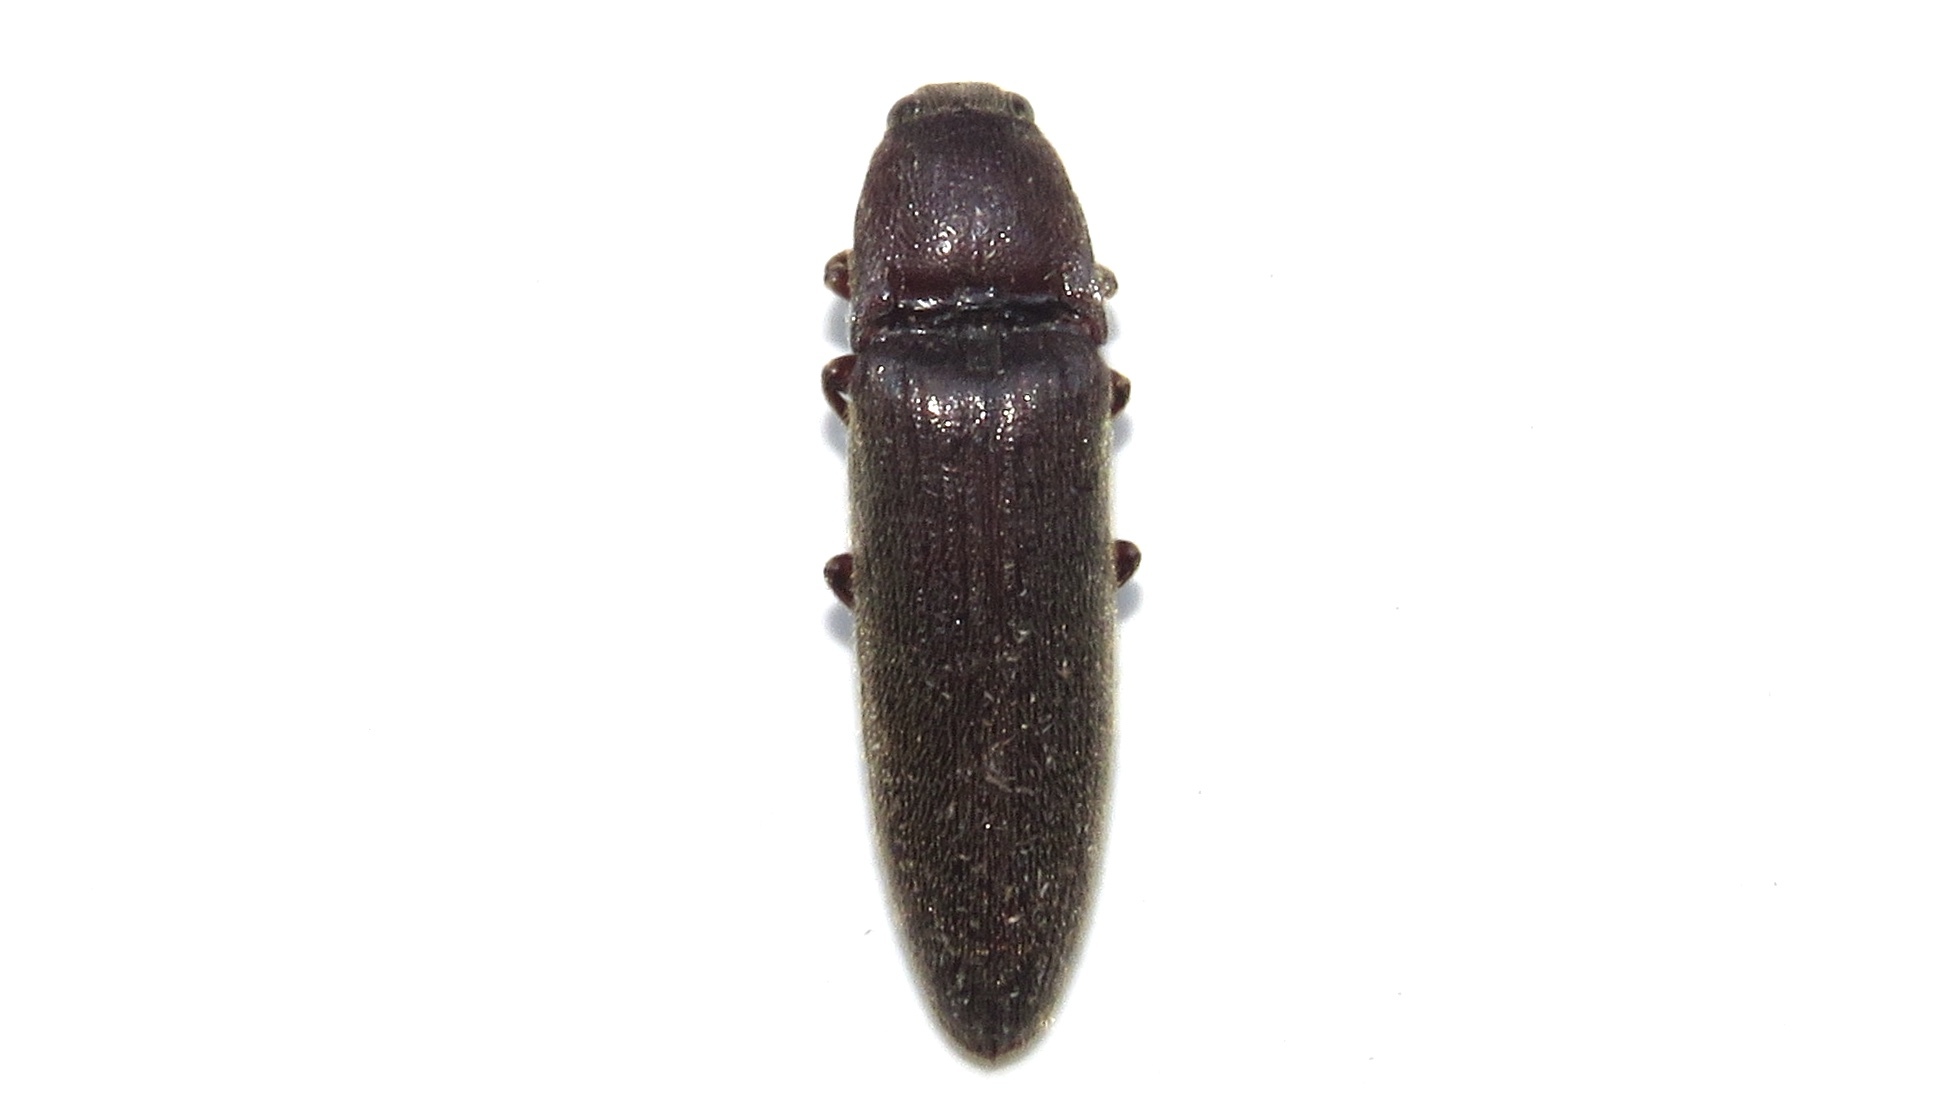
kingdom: Animalia
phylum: Arthropoda
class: Insecta
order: Coleoptera
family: Elateridae
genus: Melanotus
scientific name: Melanotus castanipes
